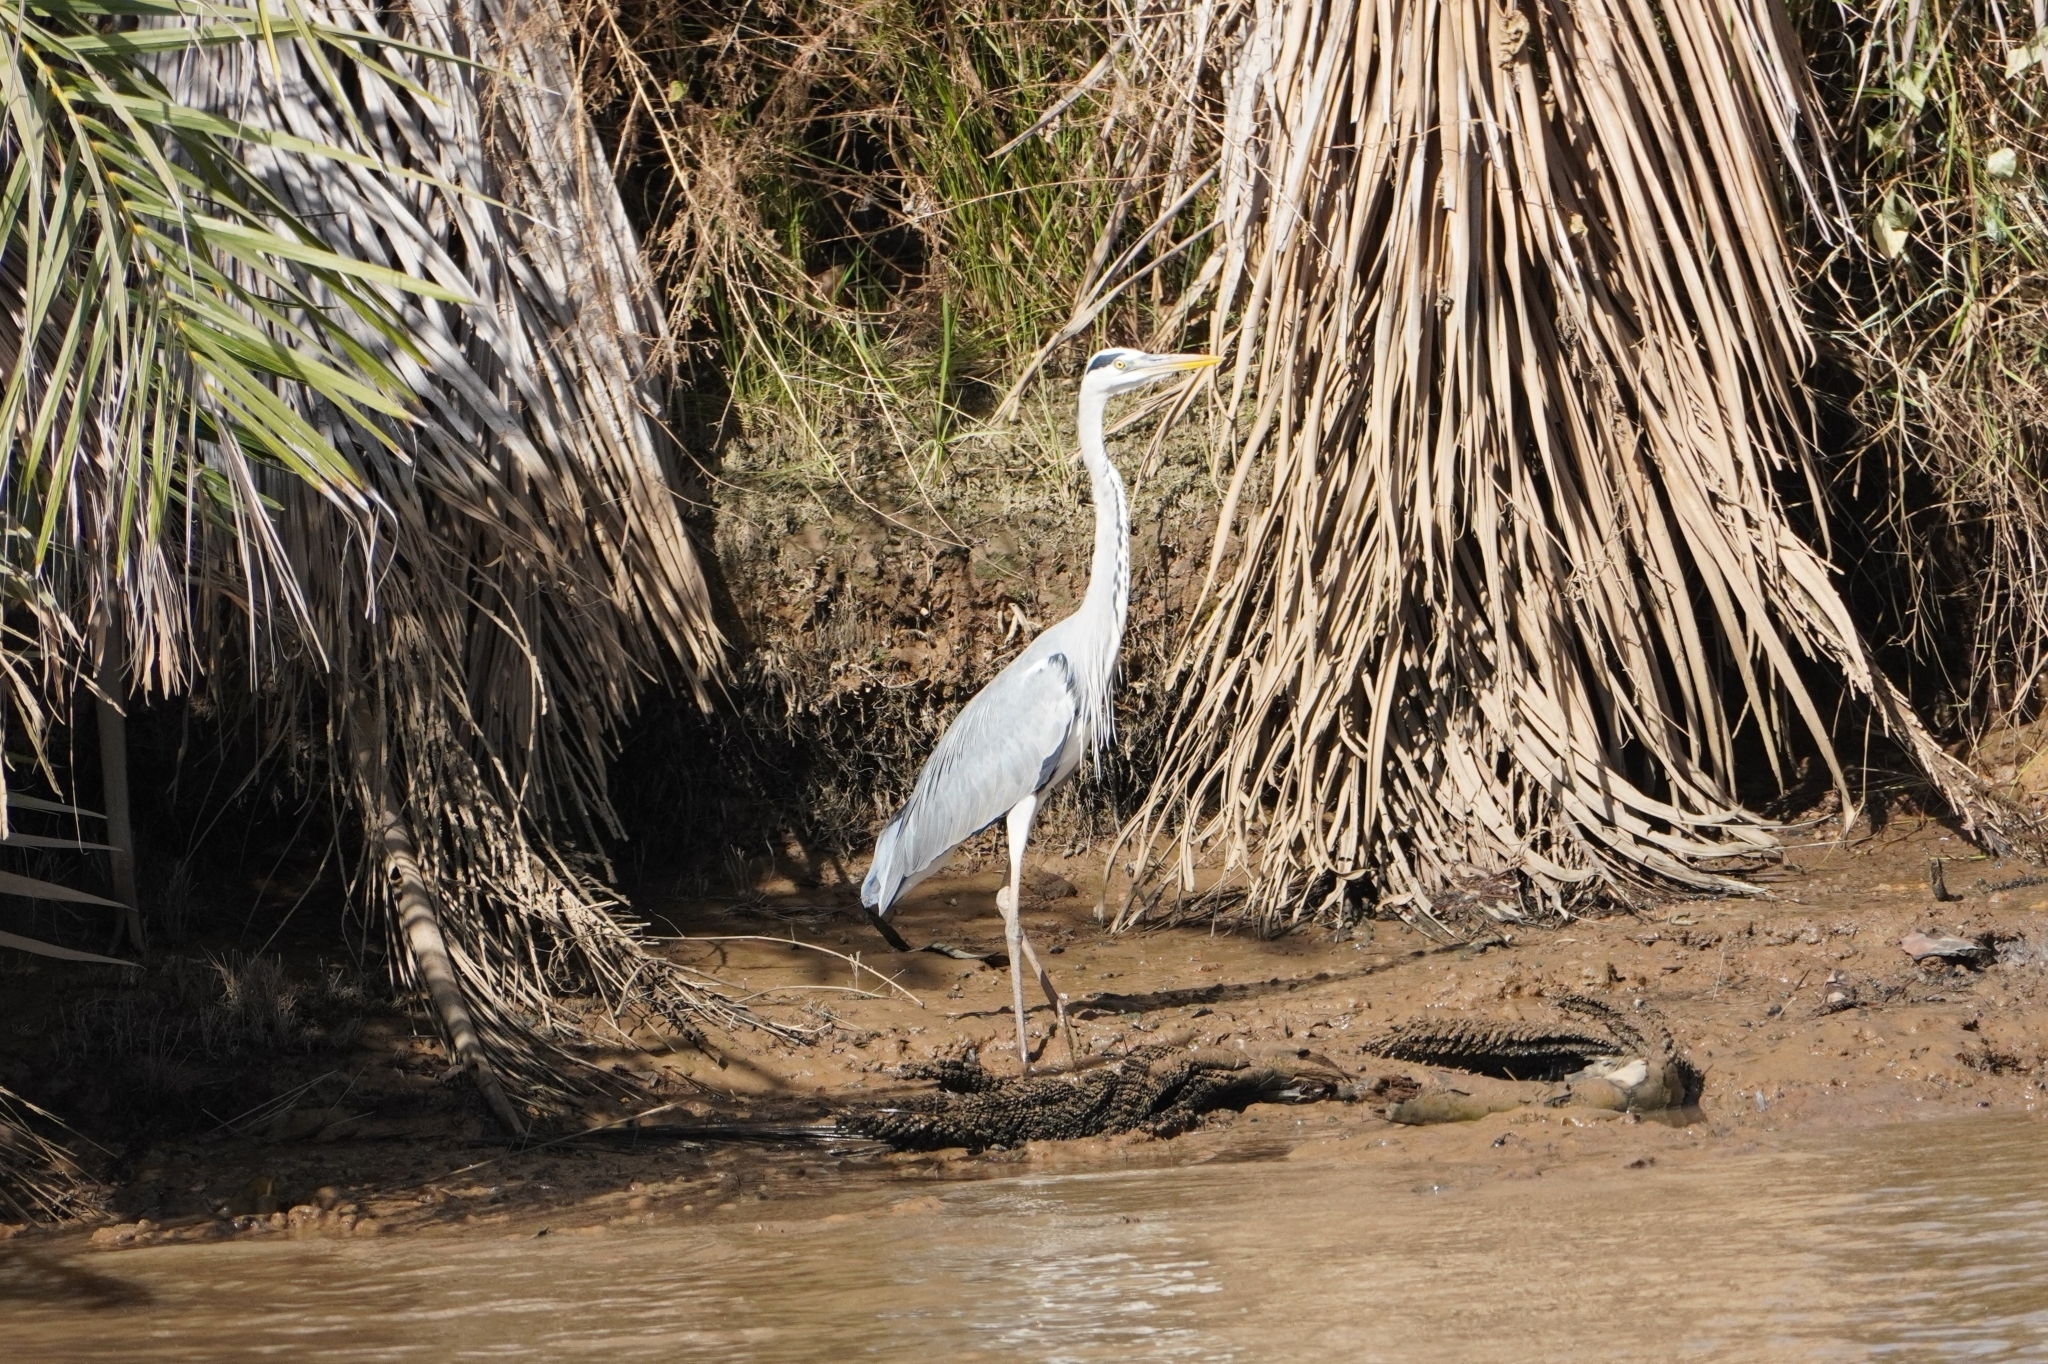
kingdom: Animalia
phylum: Chordata
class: Aves
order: Pelecaniformes
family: Ardeidae
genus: Ardea
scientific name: Ardea cinerea
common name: Grey heron
